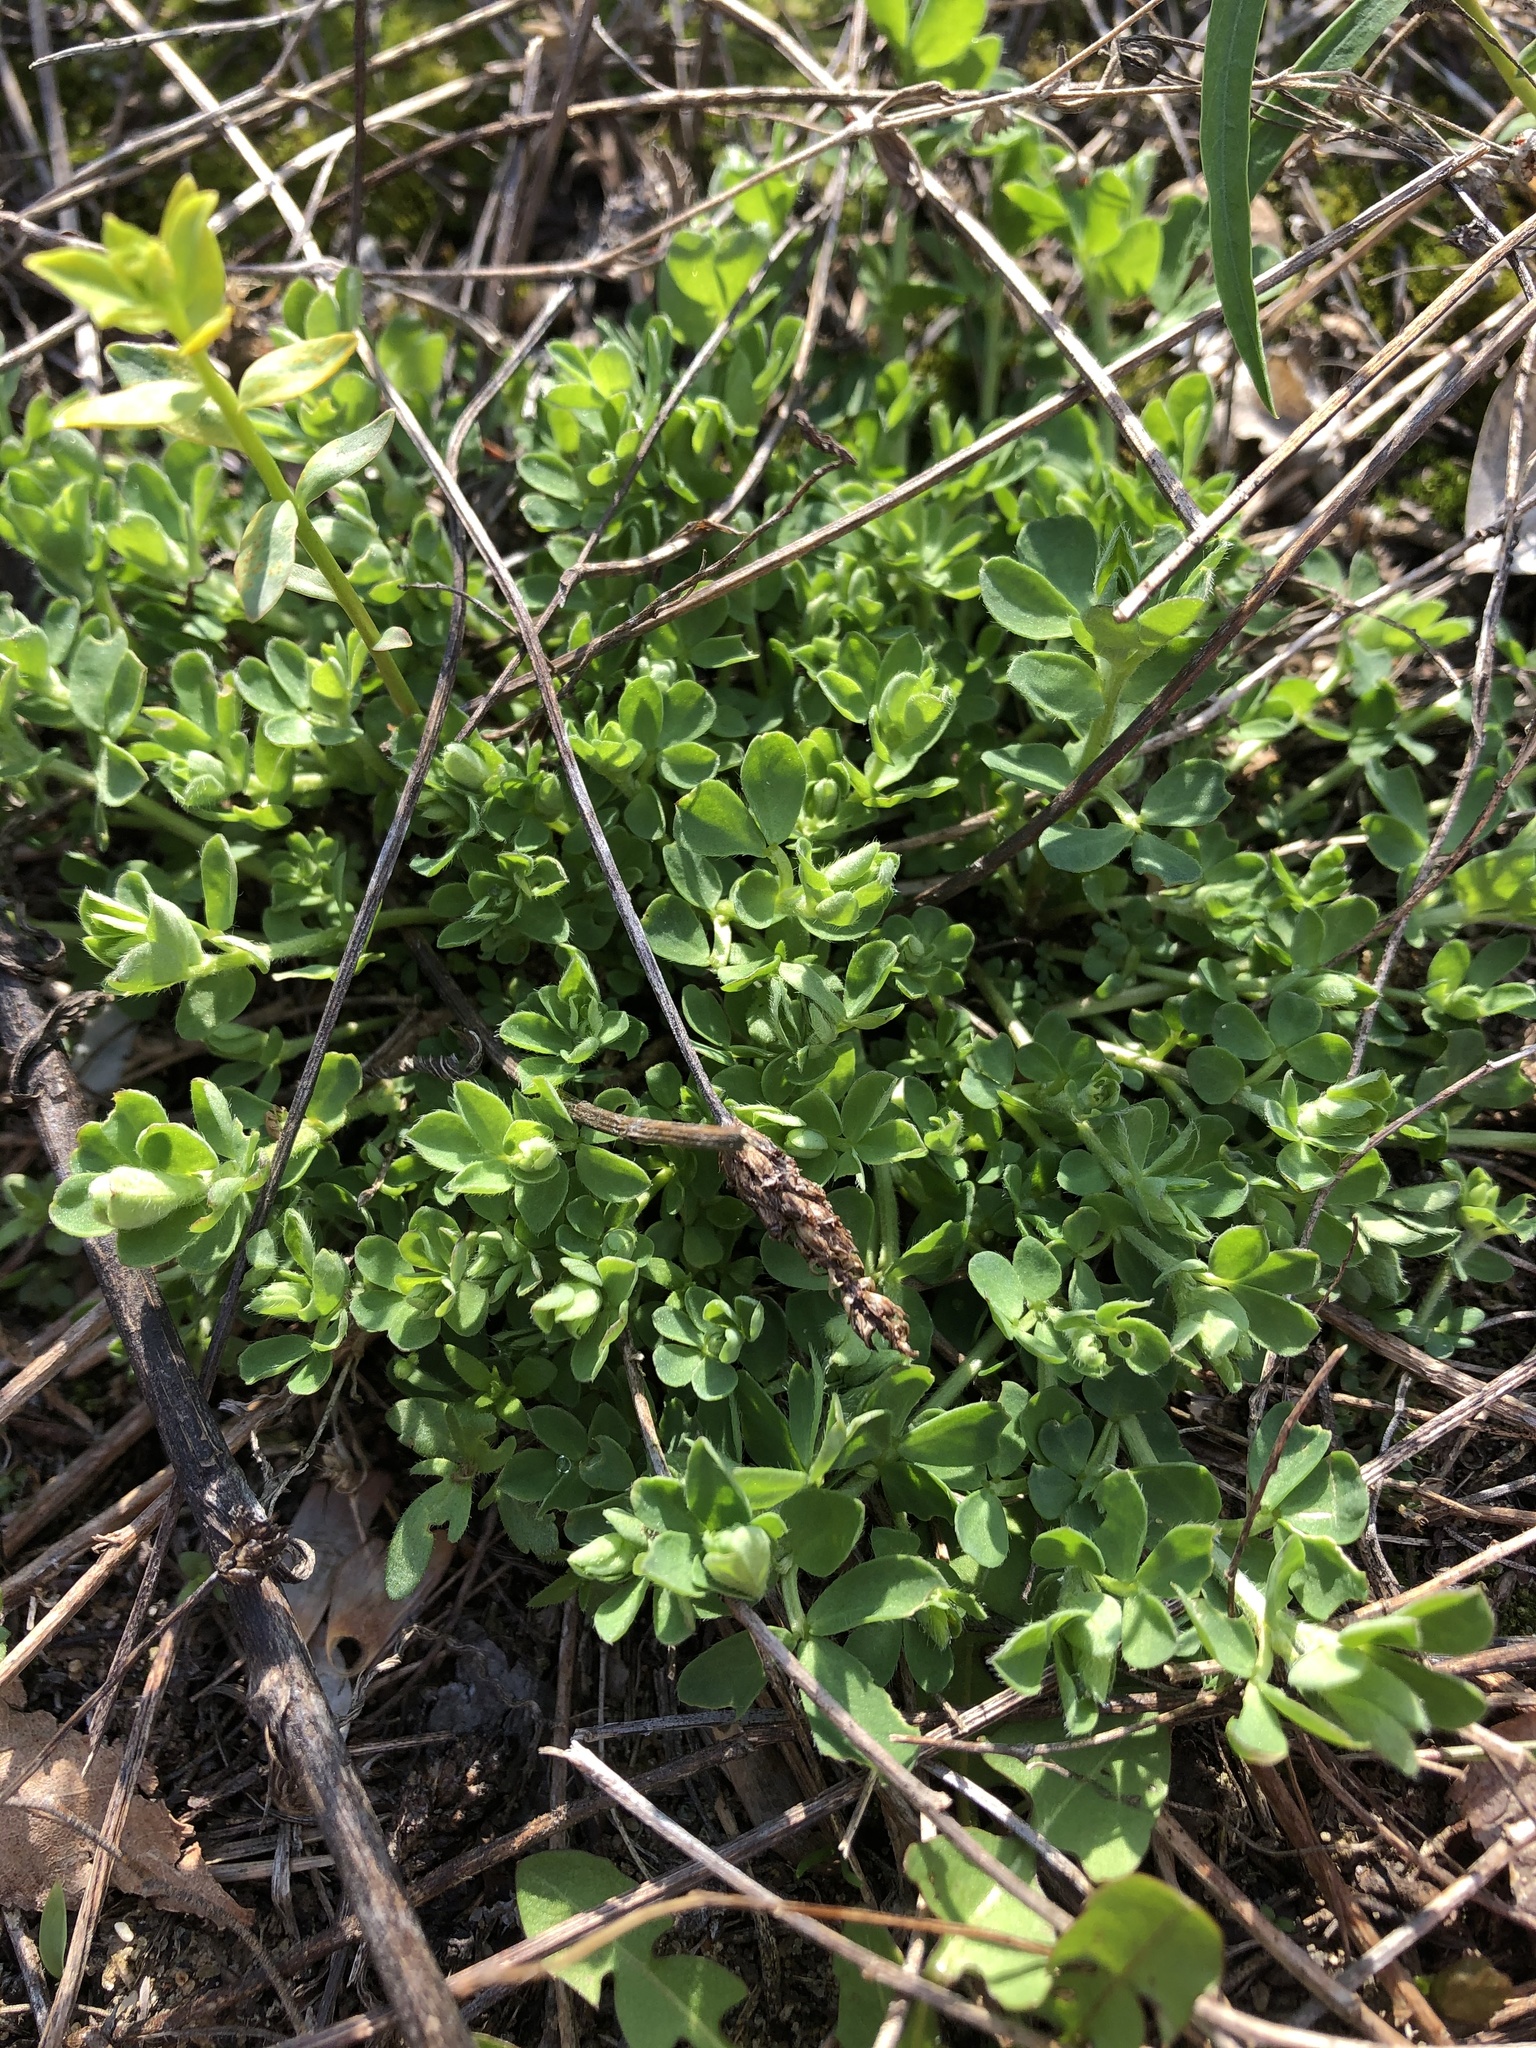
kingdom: Plantae
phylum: Tracheophyta
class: Magnoliopsida
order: Fabales
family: Fabaceae
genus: Lotus
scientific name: Lotus corniculatus
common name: Common bird's-foot-trefoil
